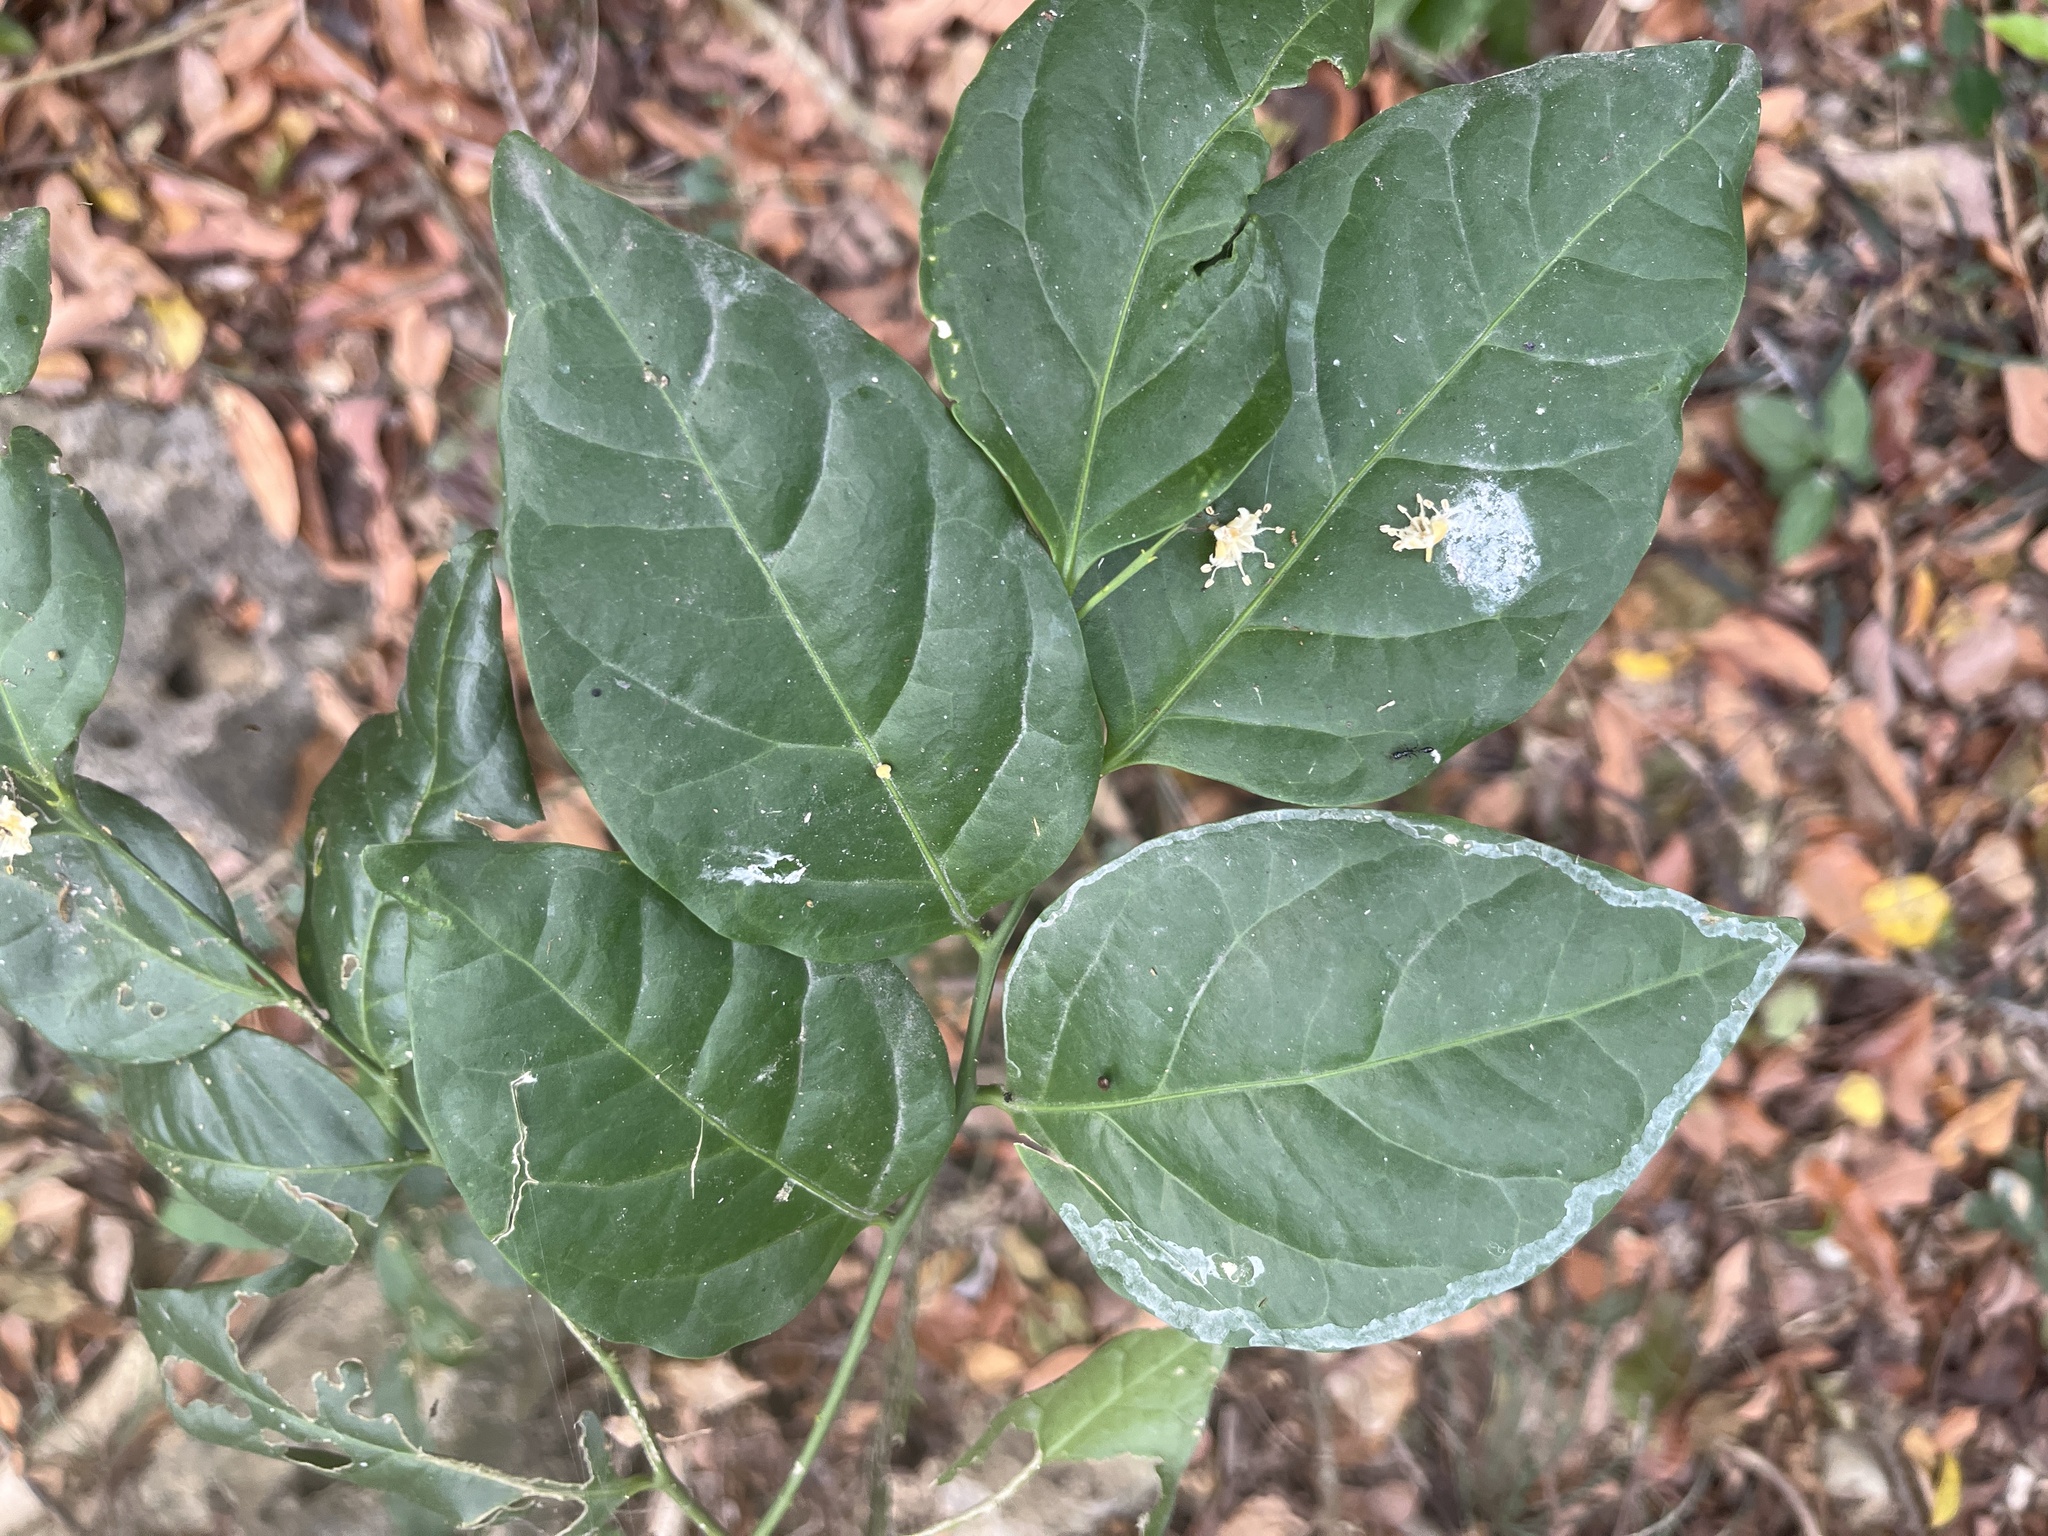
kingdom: Plantae
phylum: Tracheophyta
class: Magnoliopsida
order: Santalales
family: Opiliaceae
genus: Champereia
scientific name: Champereia manillana
